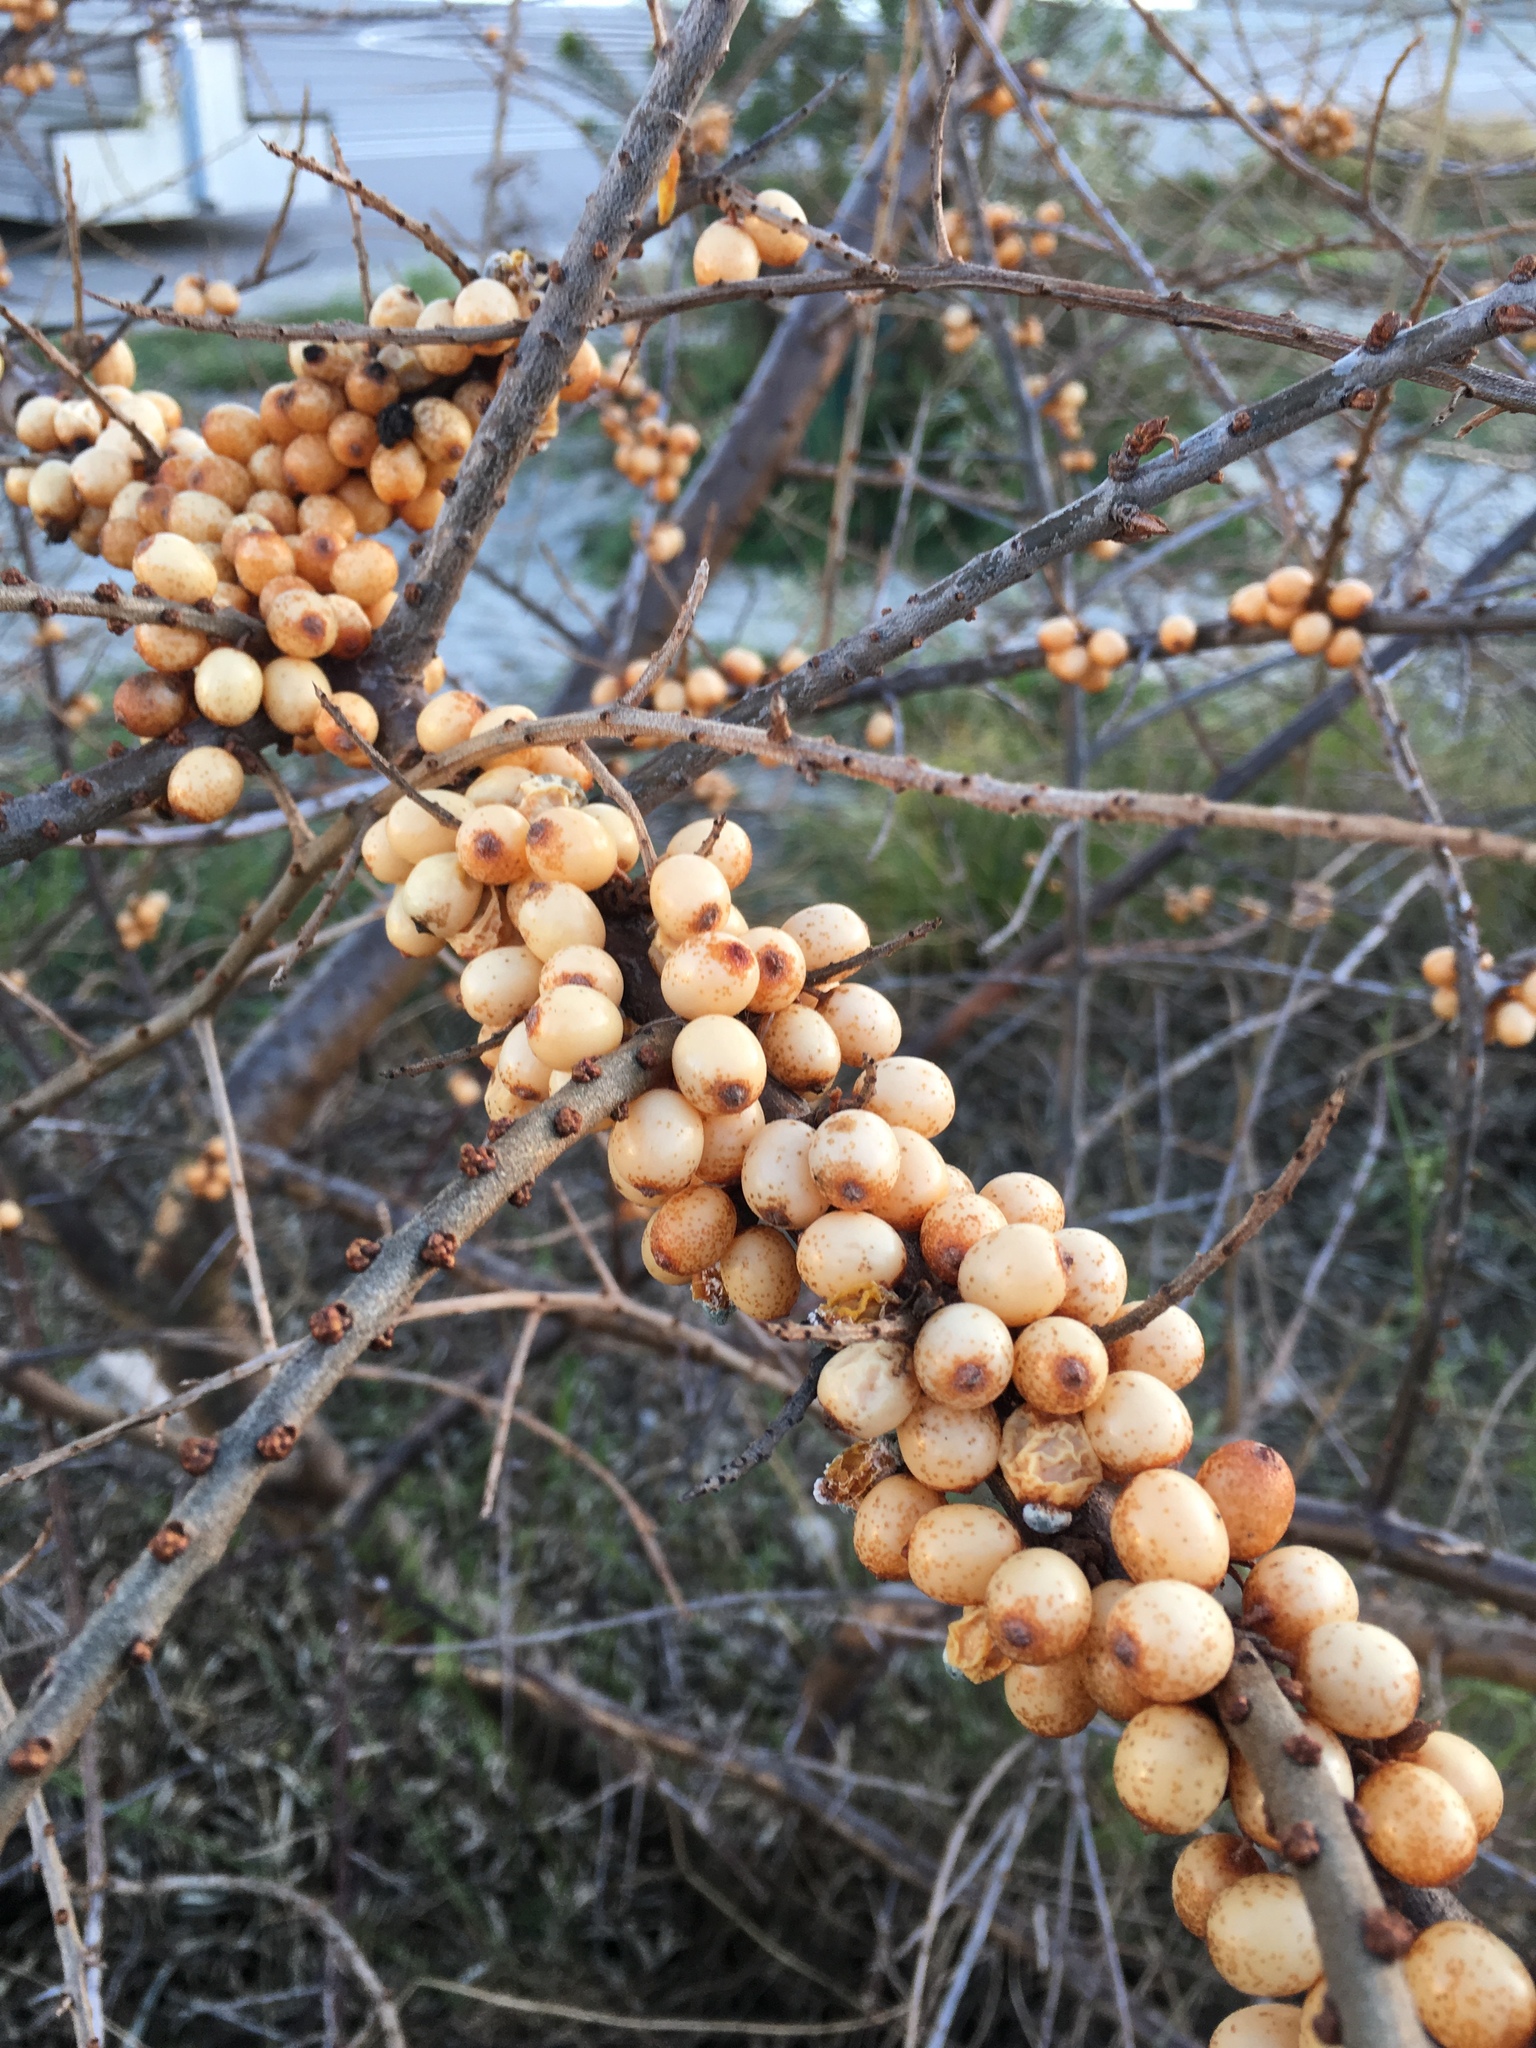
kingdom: Plantae
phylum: Tracheophyta
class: Magnoliopsida
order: Rosales
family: Elaeagnaceae
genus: Hippophae
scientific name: Hippophae rhamnoides
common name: Sea-buckthorn
